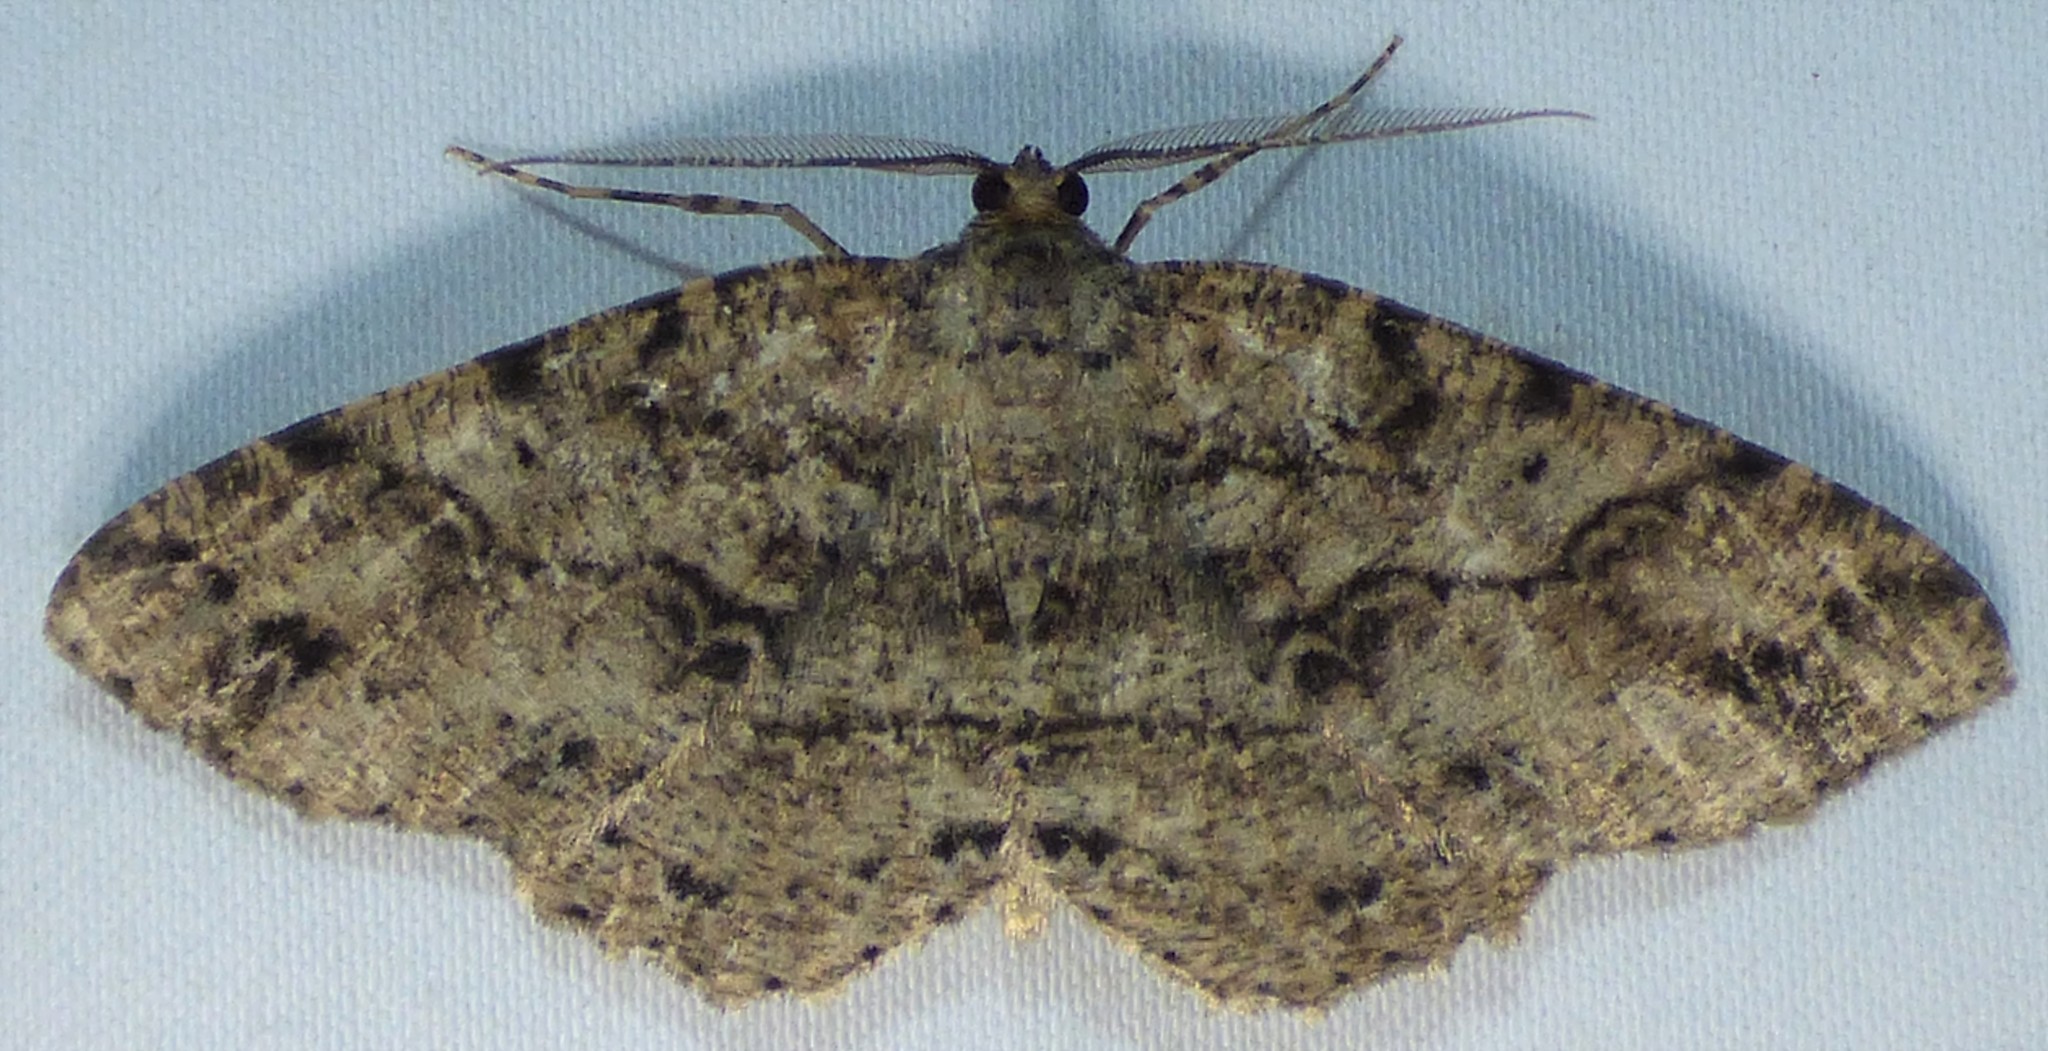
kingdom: Animalia
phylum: Arthropoda
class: Insecta
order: Lepidoptera
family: Geometridae
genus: Melanolophia
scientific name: Melanolophia canadaria
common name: Canadian melanolophia
